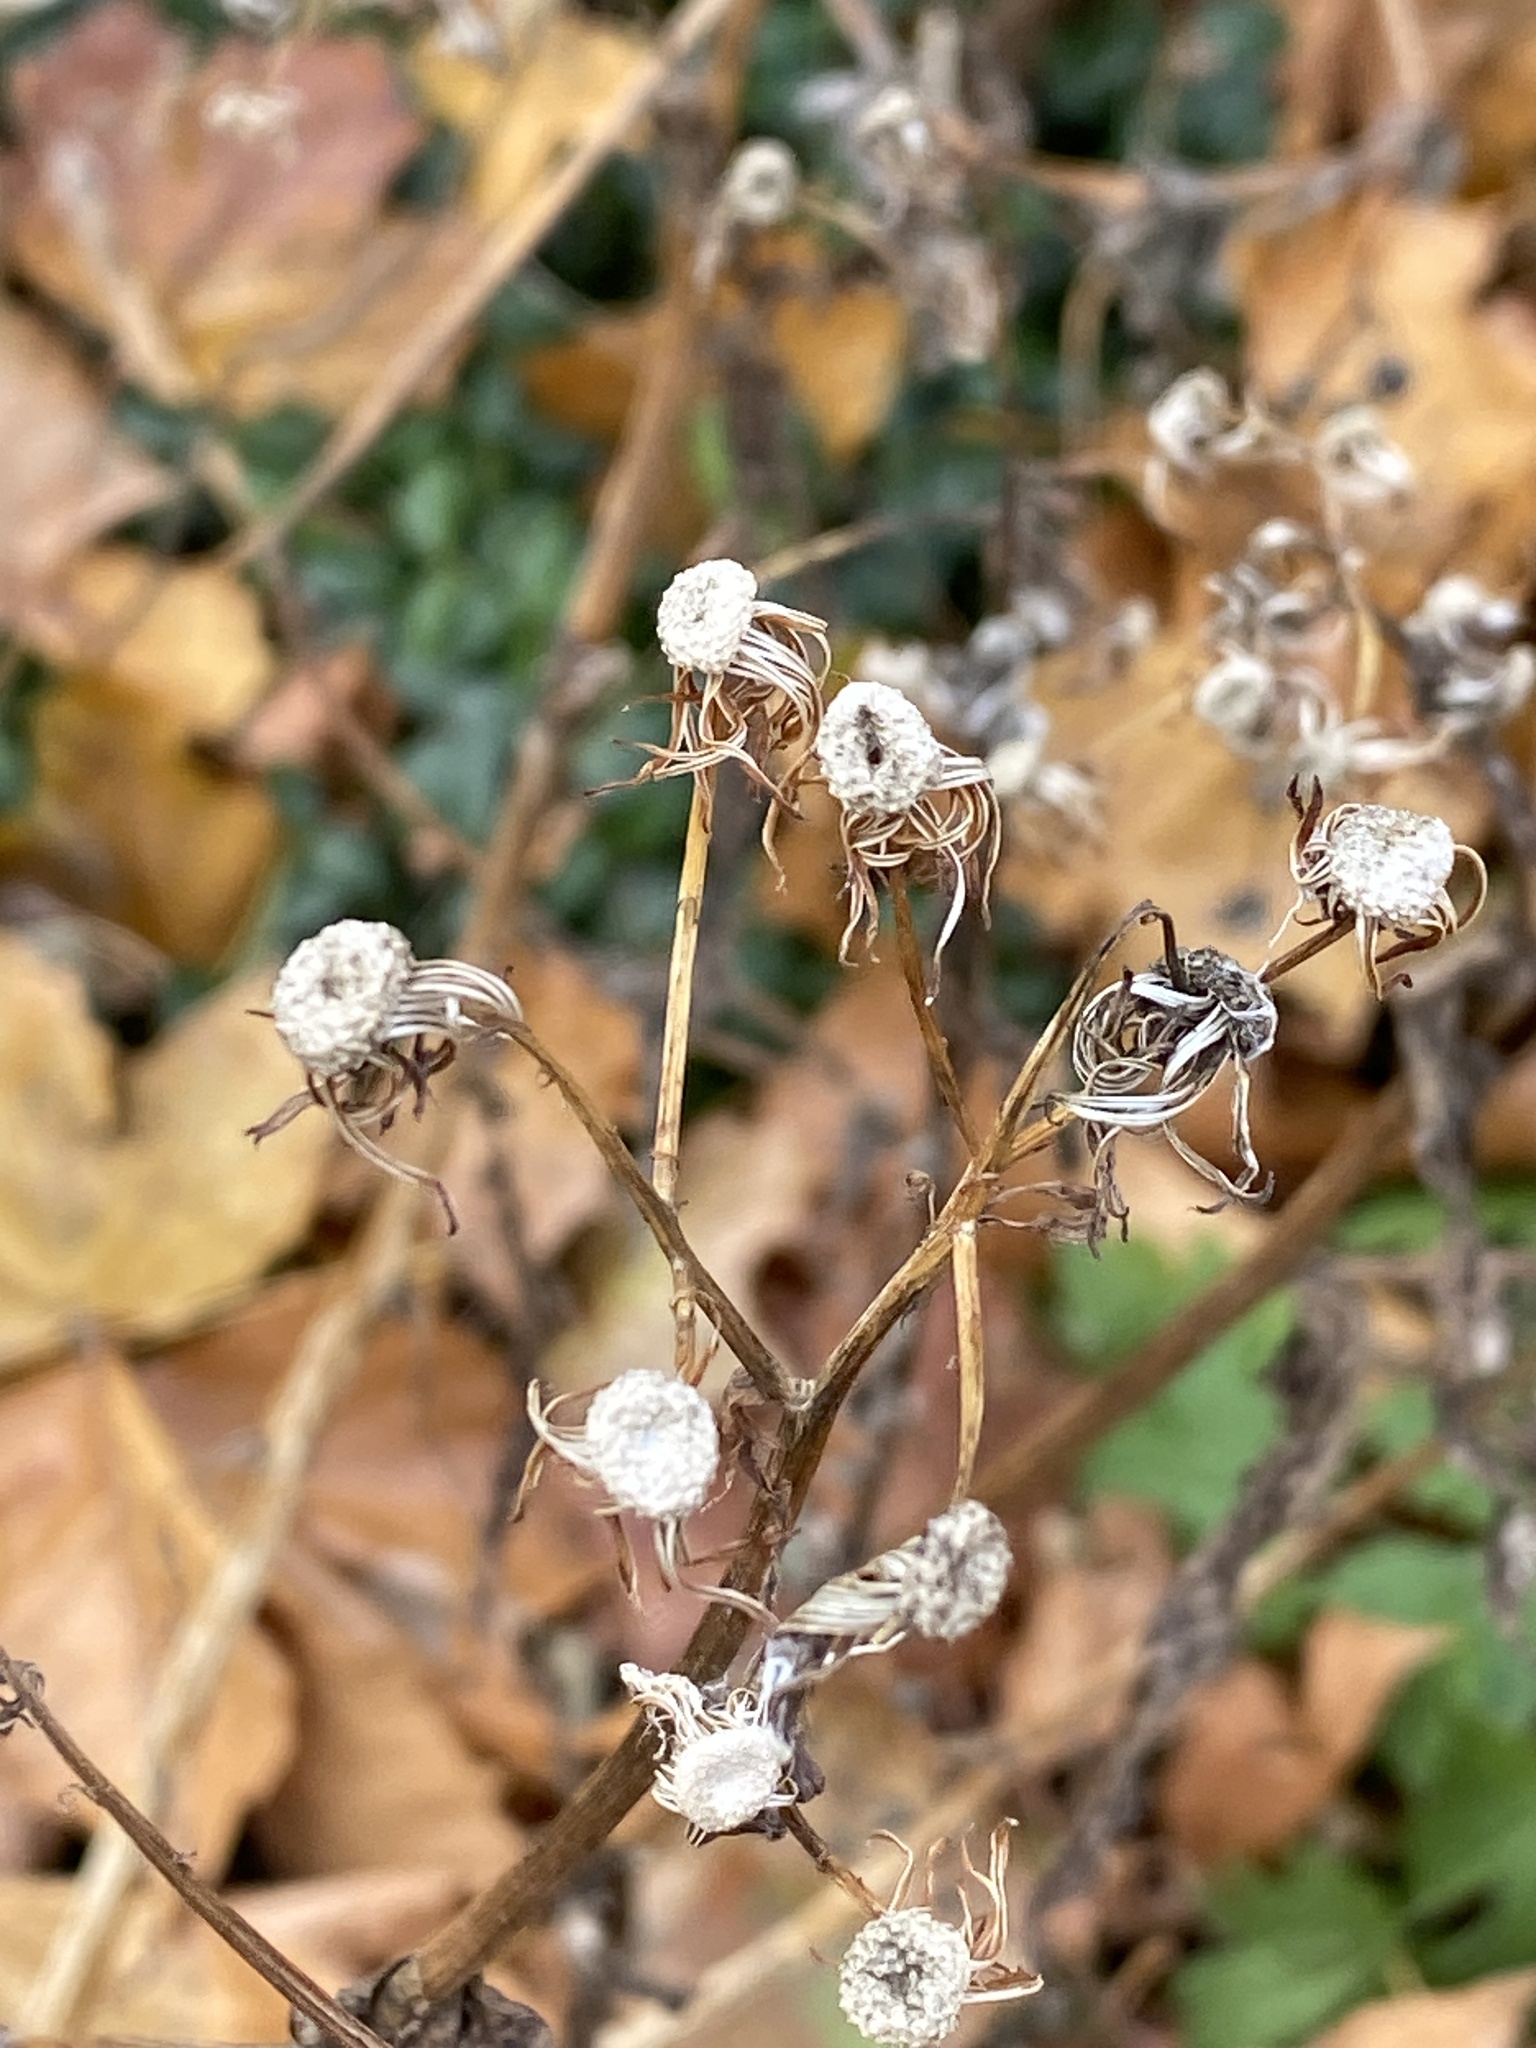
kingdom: Plantae
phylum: Tracheophyta
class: Magnoliopsida
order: Asterales
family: Asteraceae
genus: Erechtites
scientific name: Erechtites hieraciifolius
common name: American burnweed
